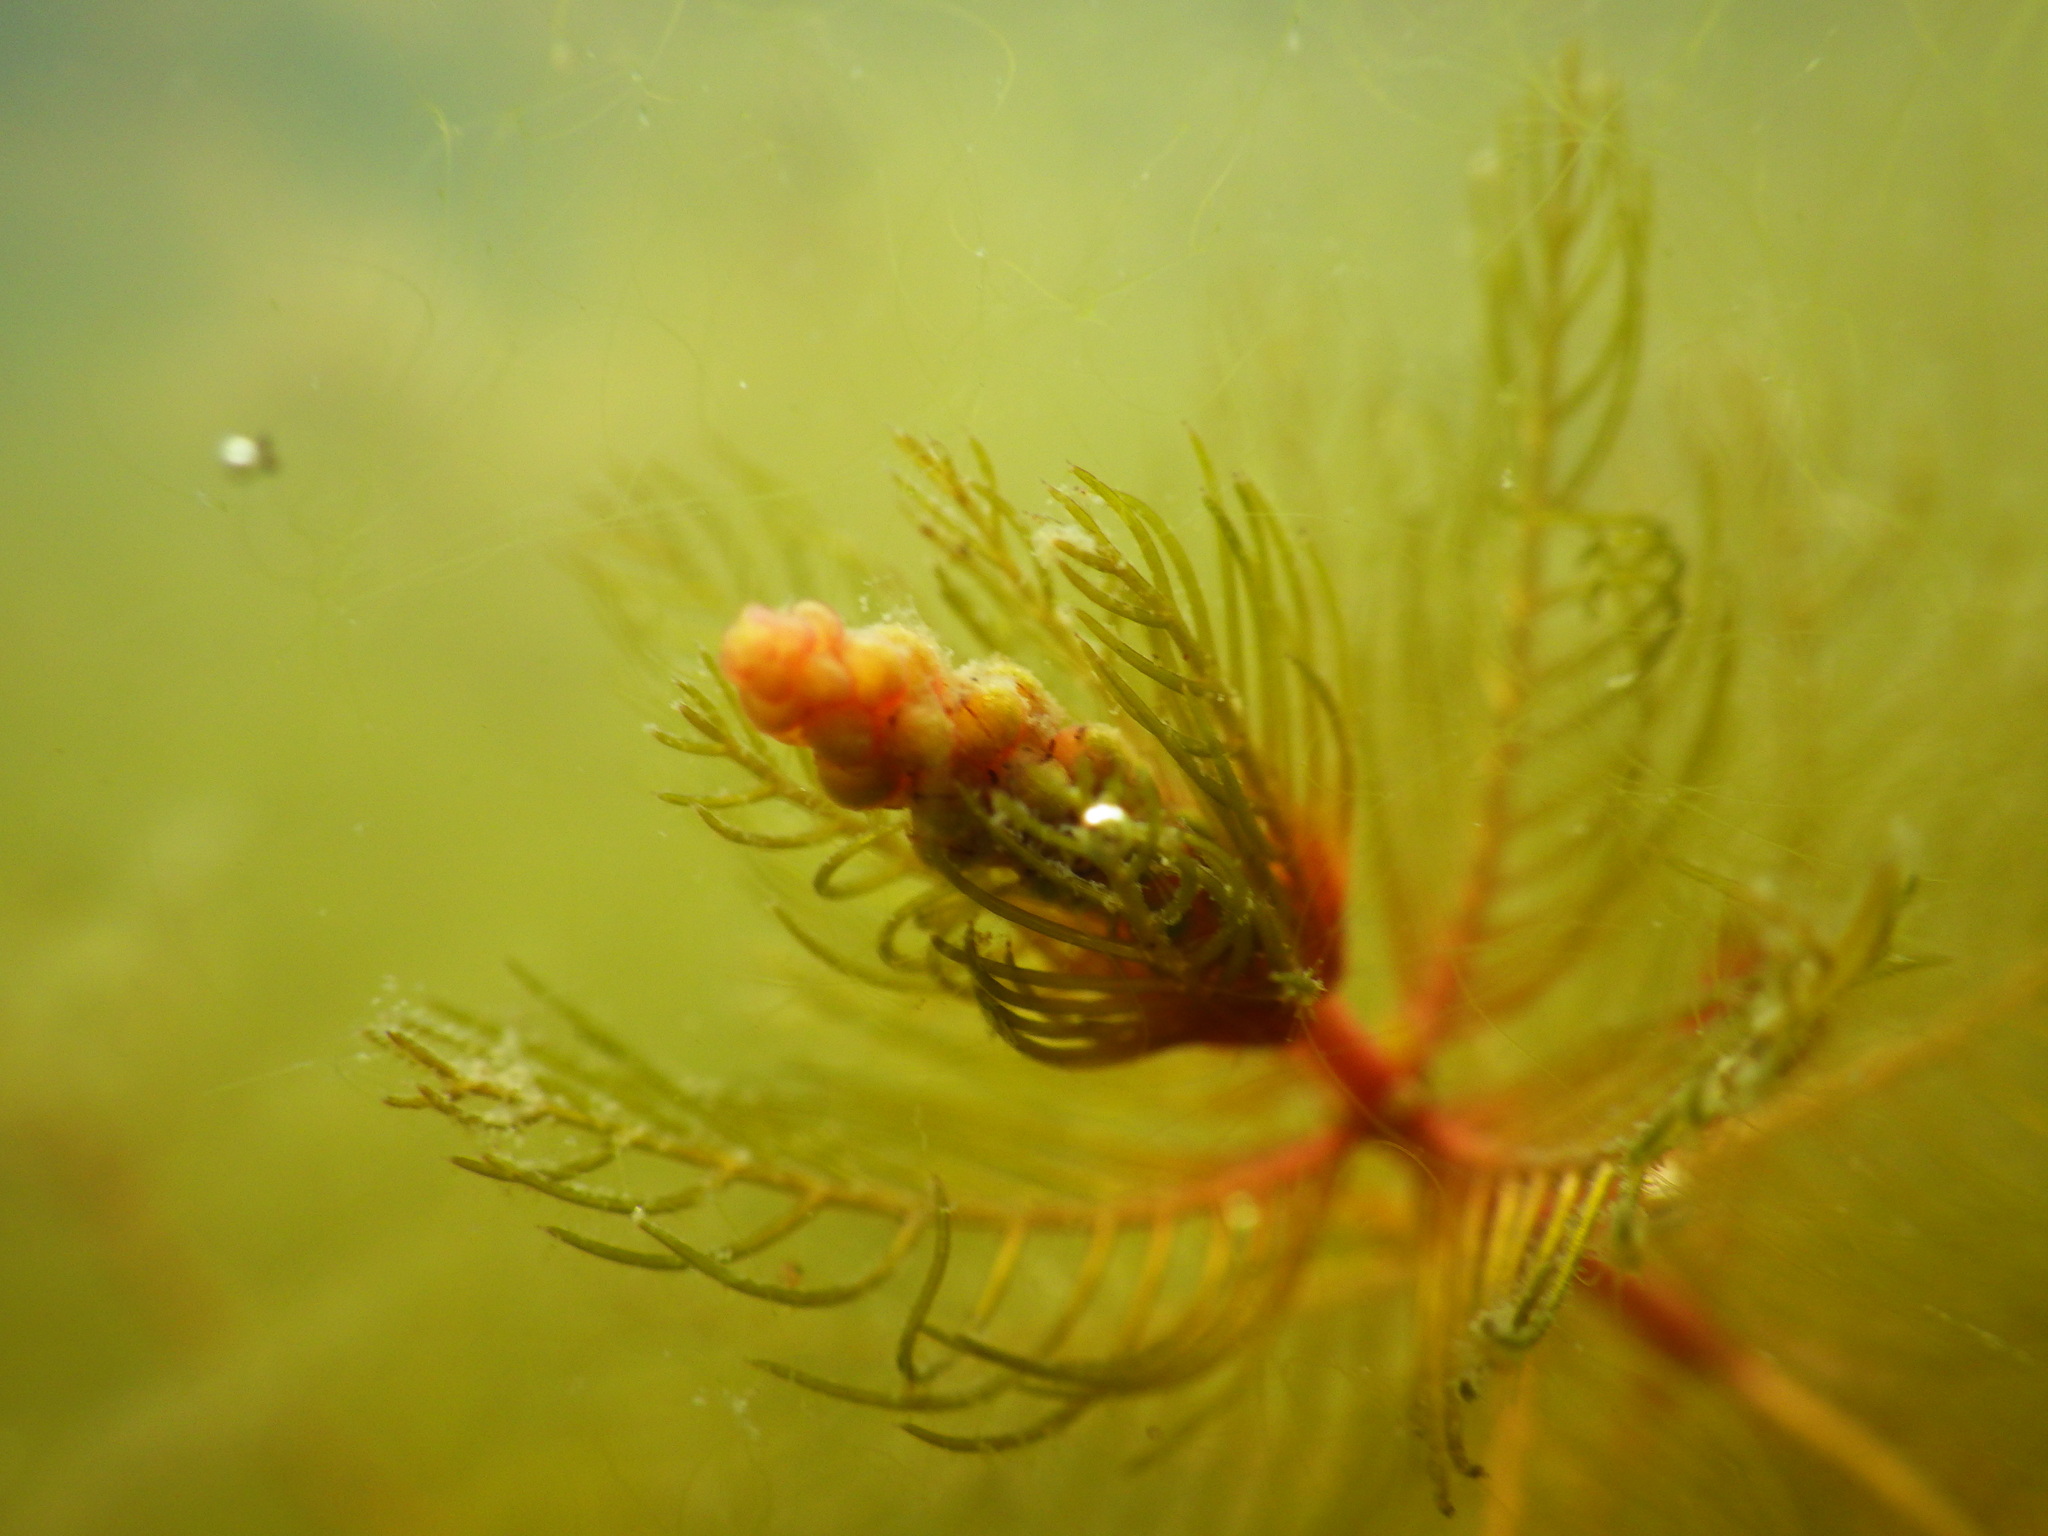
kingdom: Plantae
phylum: Tracheophyta
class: Magnoliopsida
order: Saxifragales
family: Haloragaceae
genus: Myriophyllum
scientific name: Myriophyllum spicatum
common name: Spiked water-milfoil
